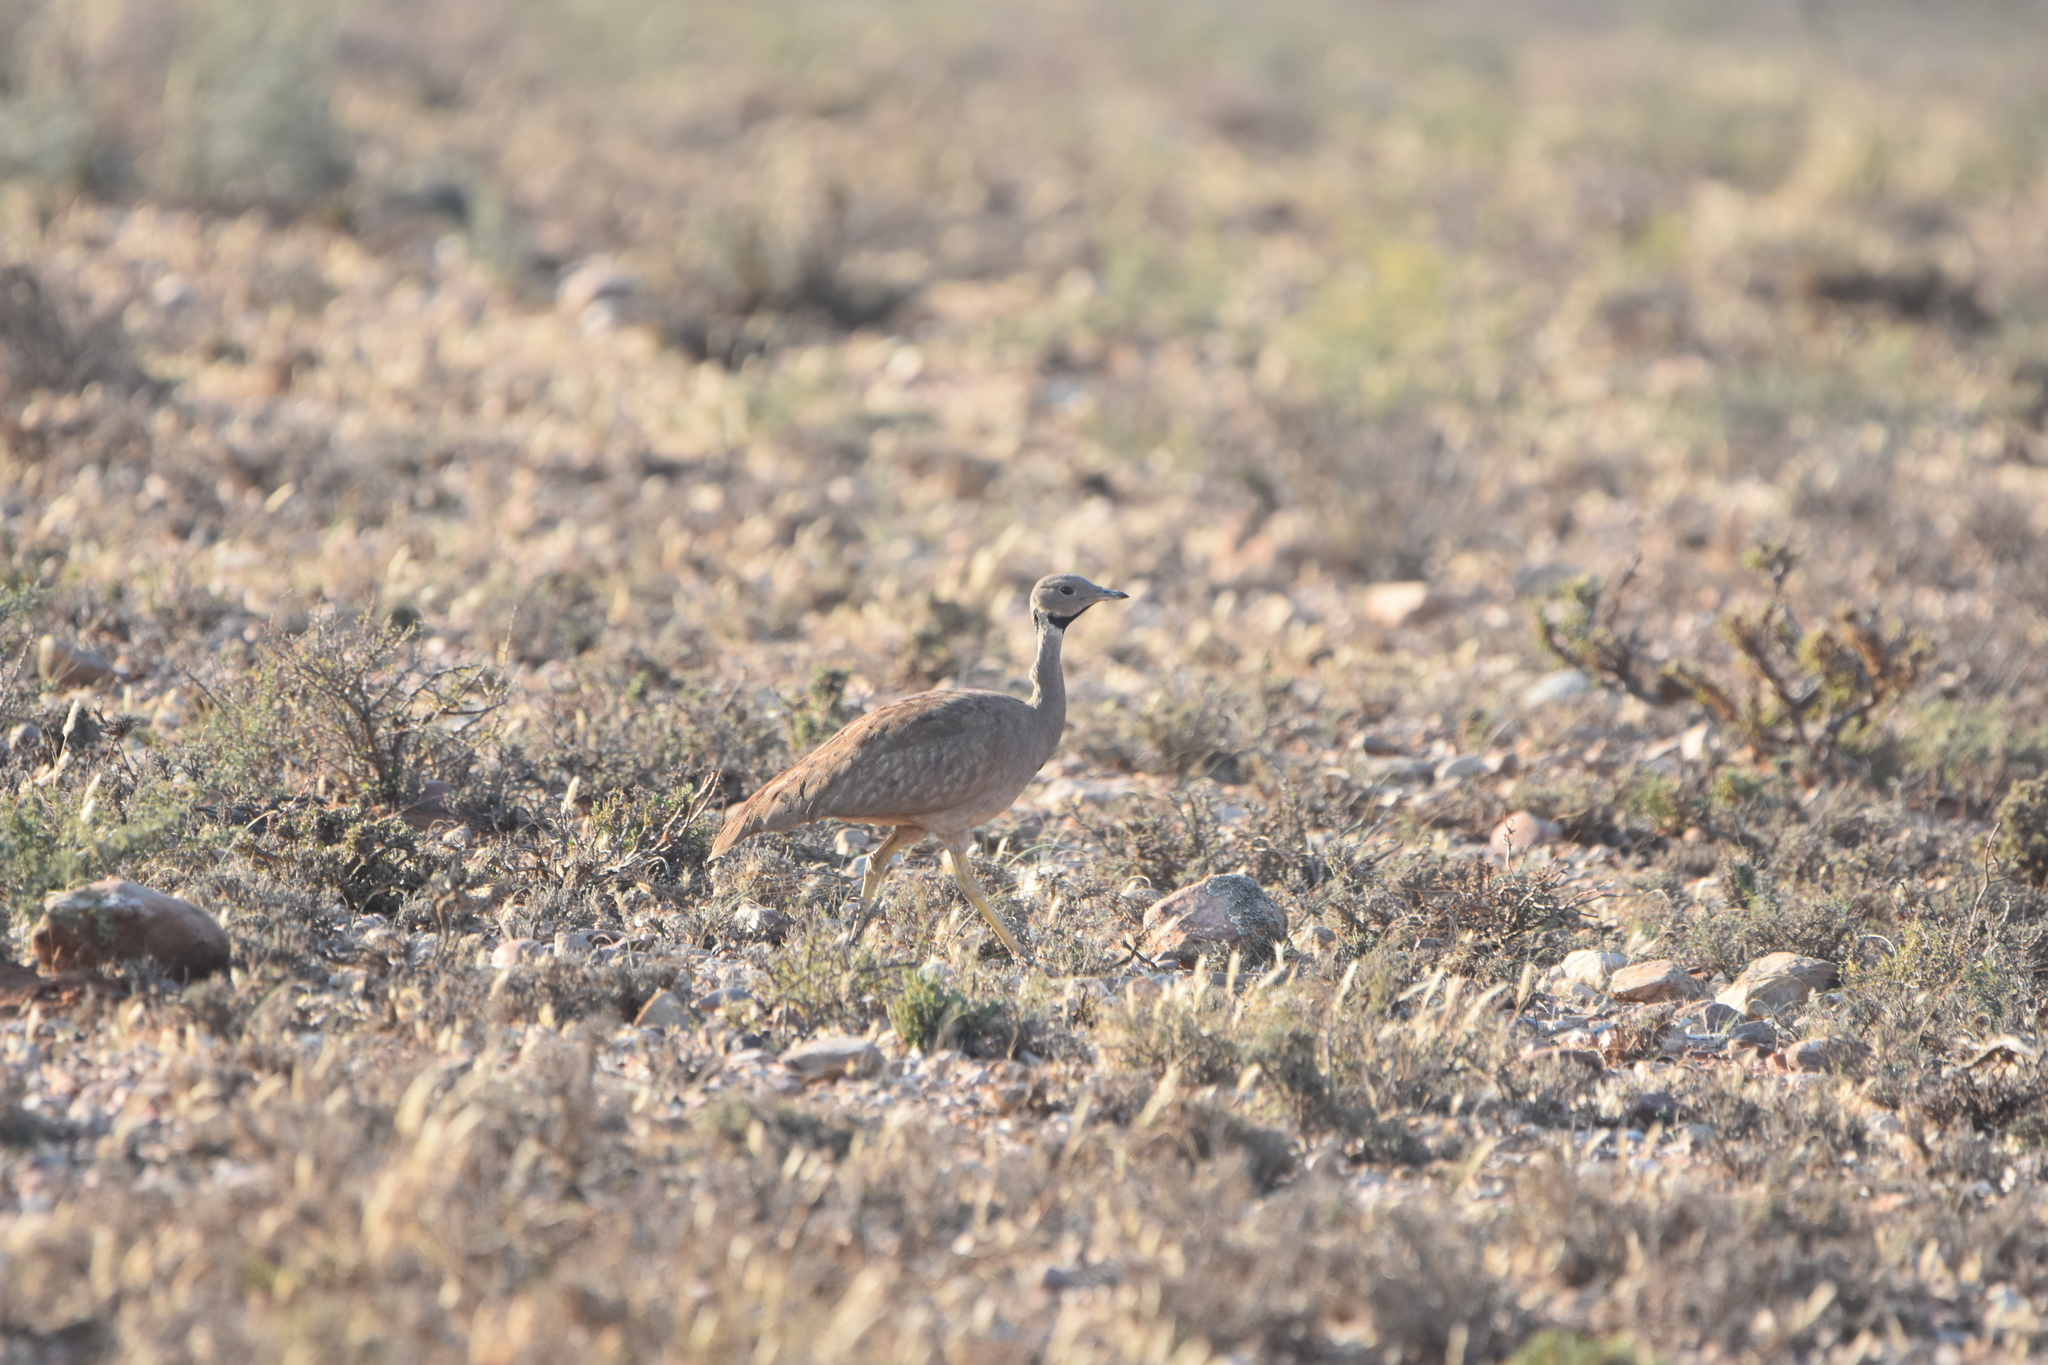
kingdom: Animalia
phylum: Chordata
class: Aves
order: Otidiformes
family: Otididae
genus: Eupodotis
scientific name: Eupodotis vigorsii
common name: Karoo korhaan
